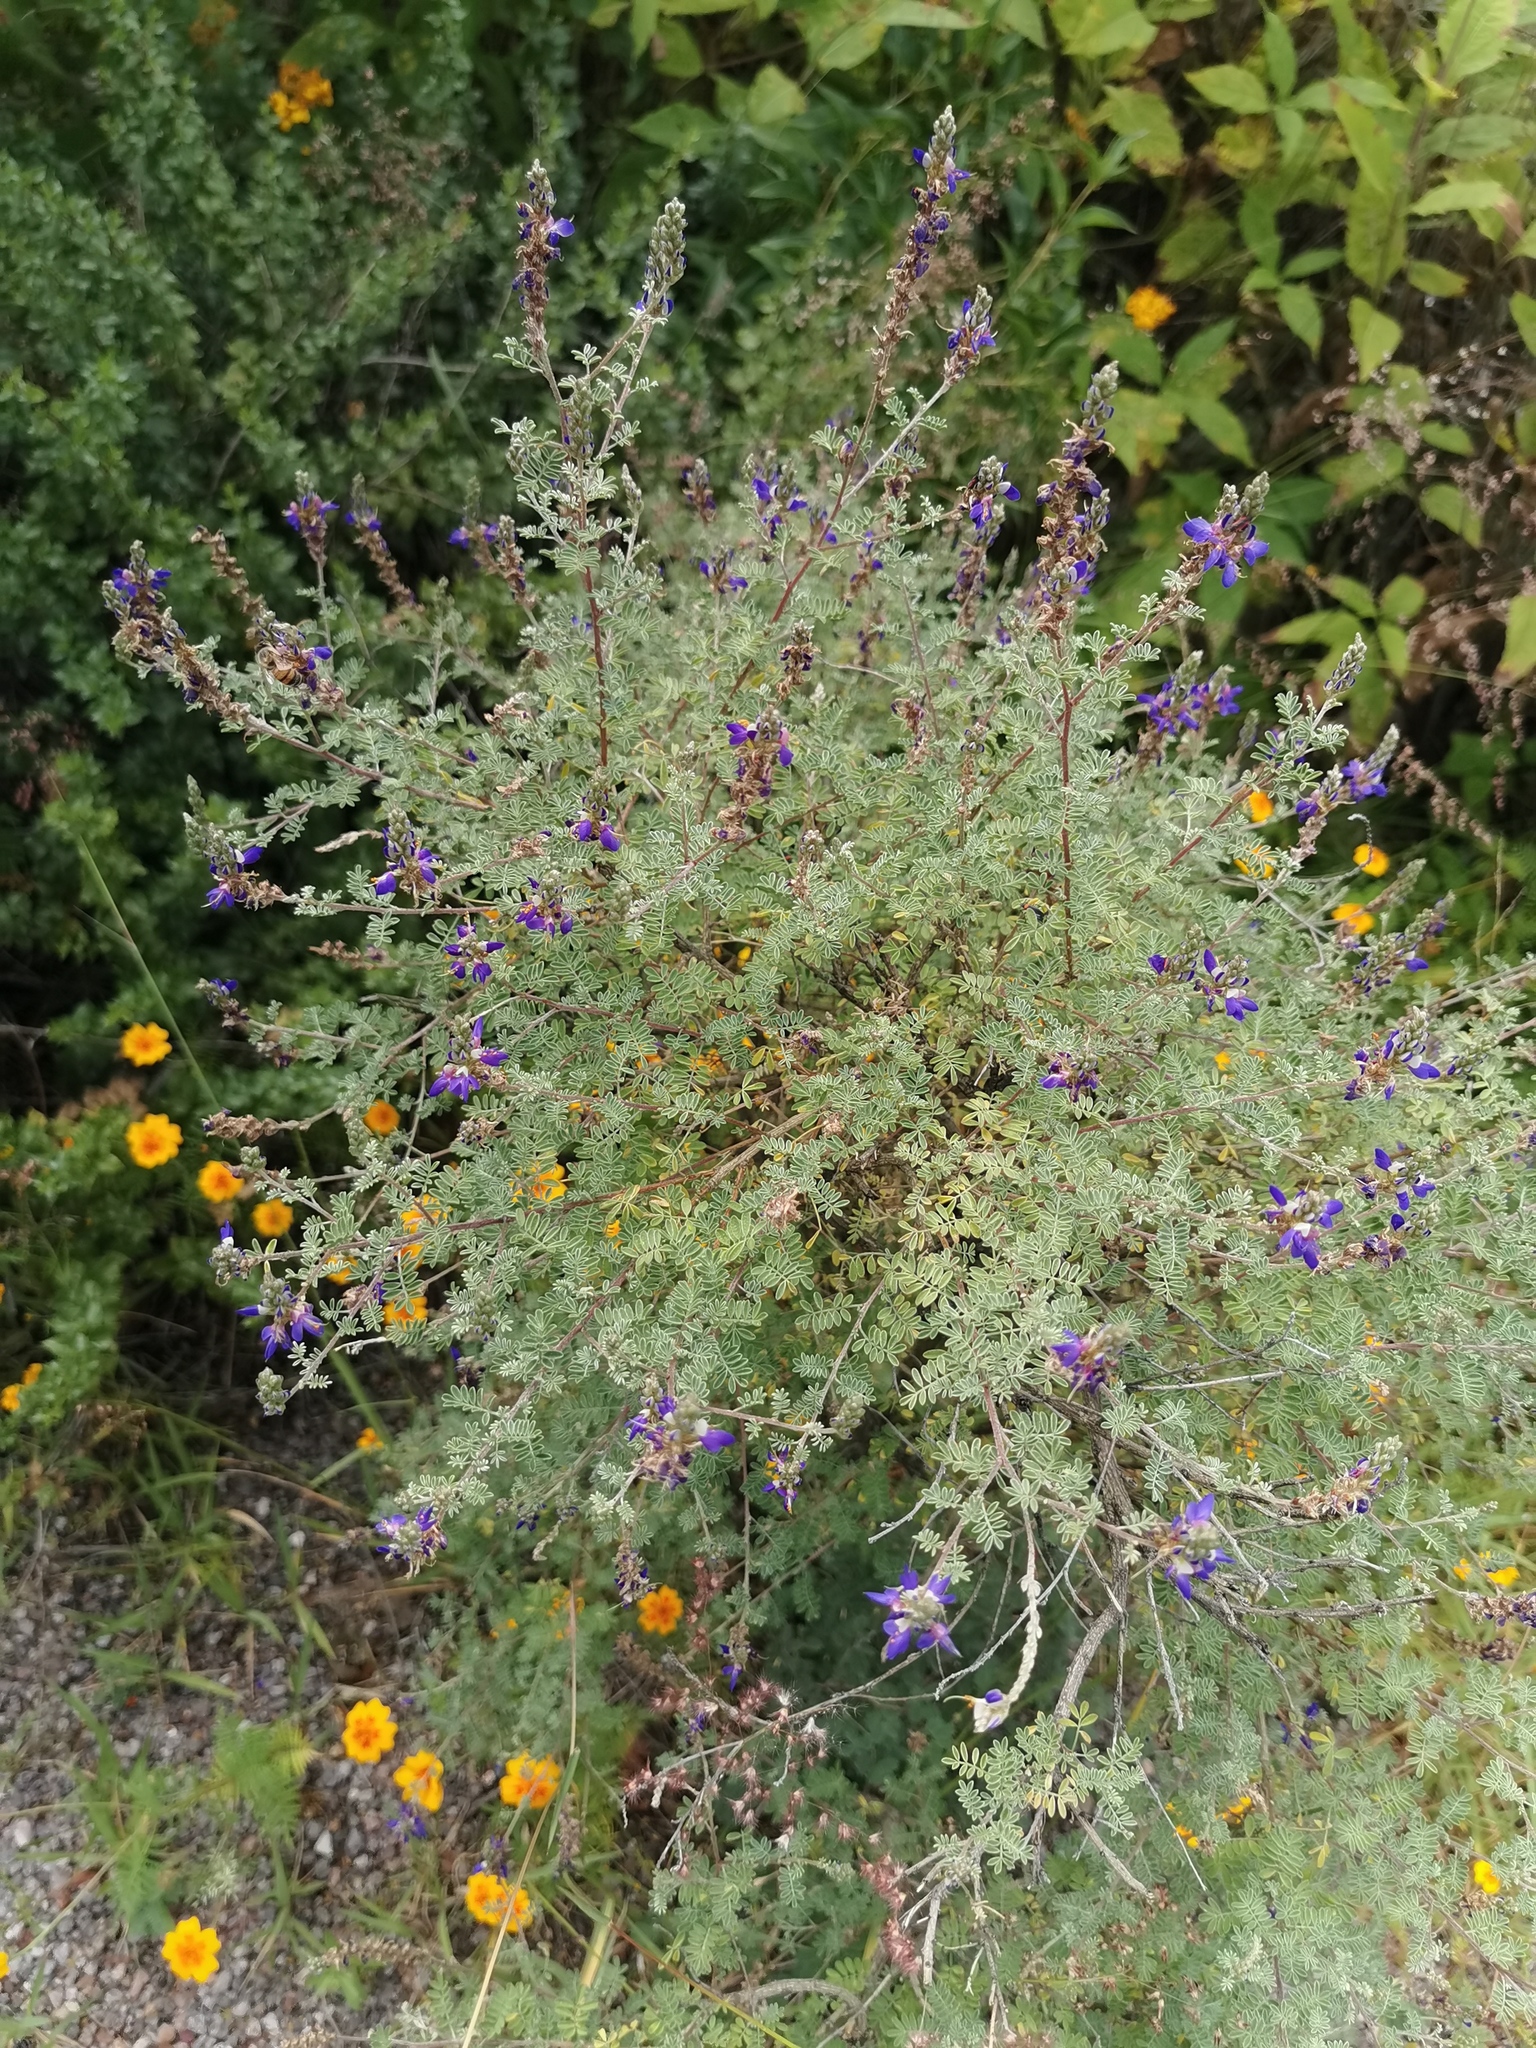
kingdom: Plantae
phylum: Tracheophyta
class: Magnoliopsida
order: Fabales
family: Fabaceae
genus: Dalea
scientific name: Dalea bicolor
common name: Silver prairie-clover
